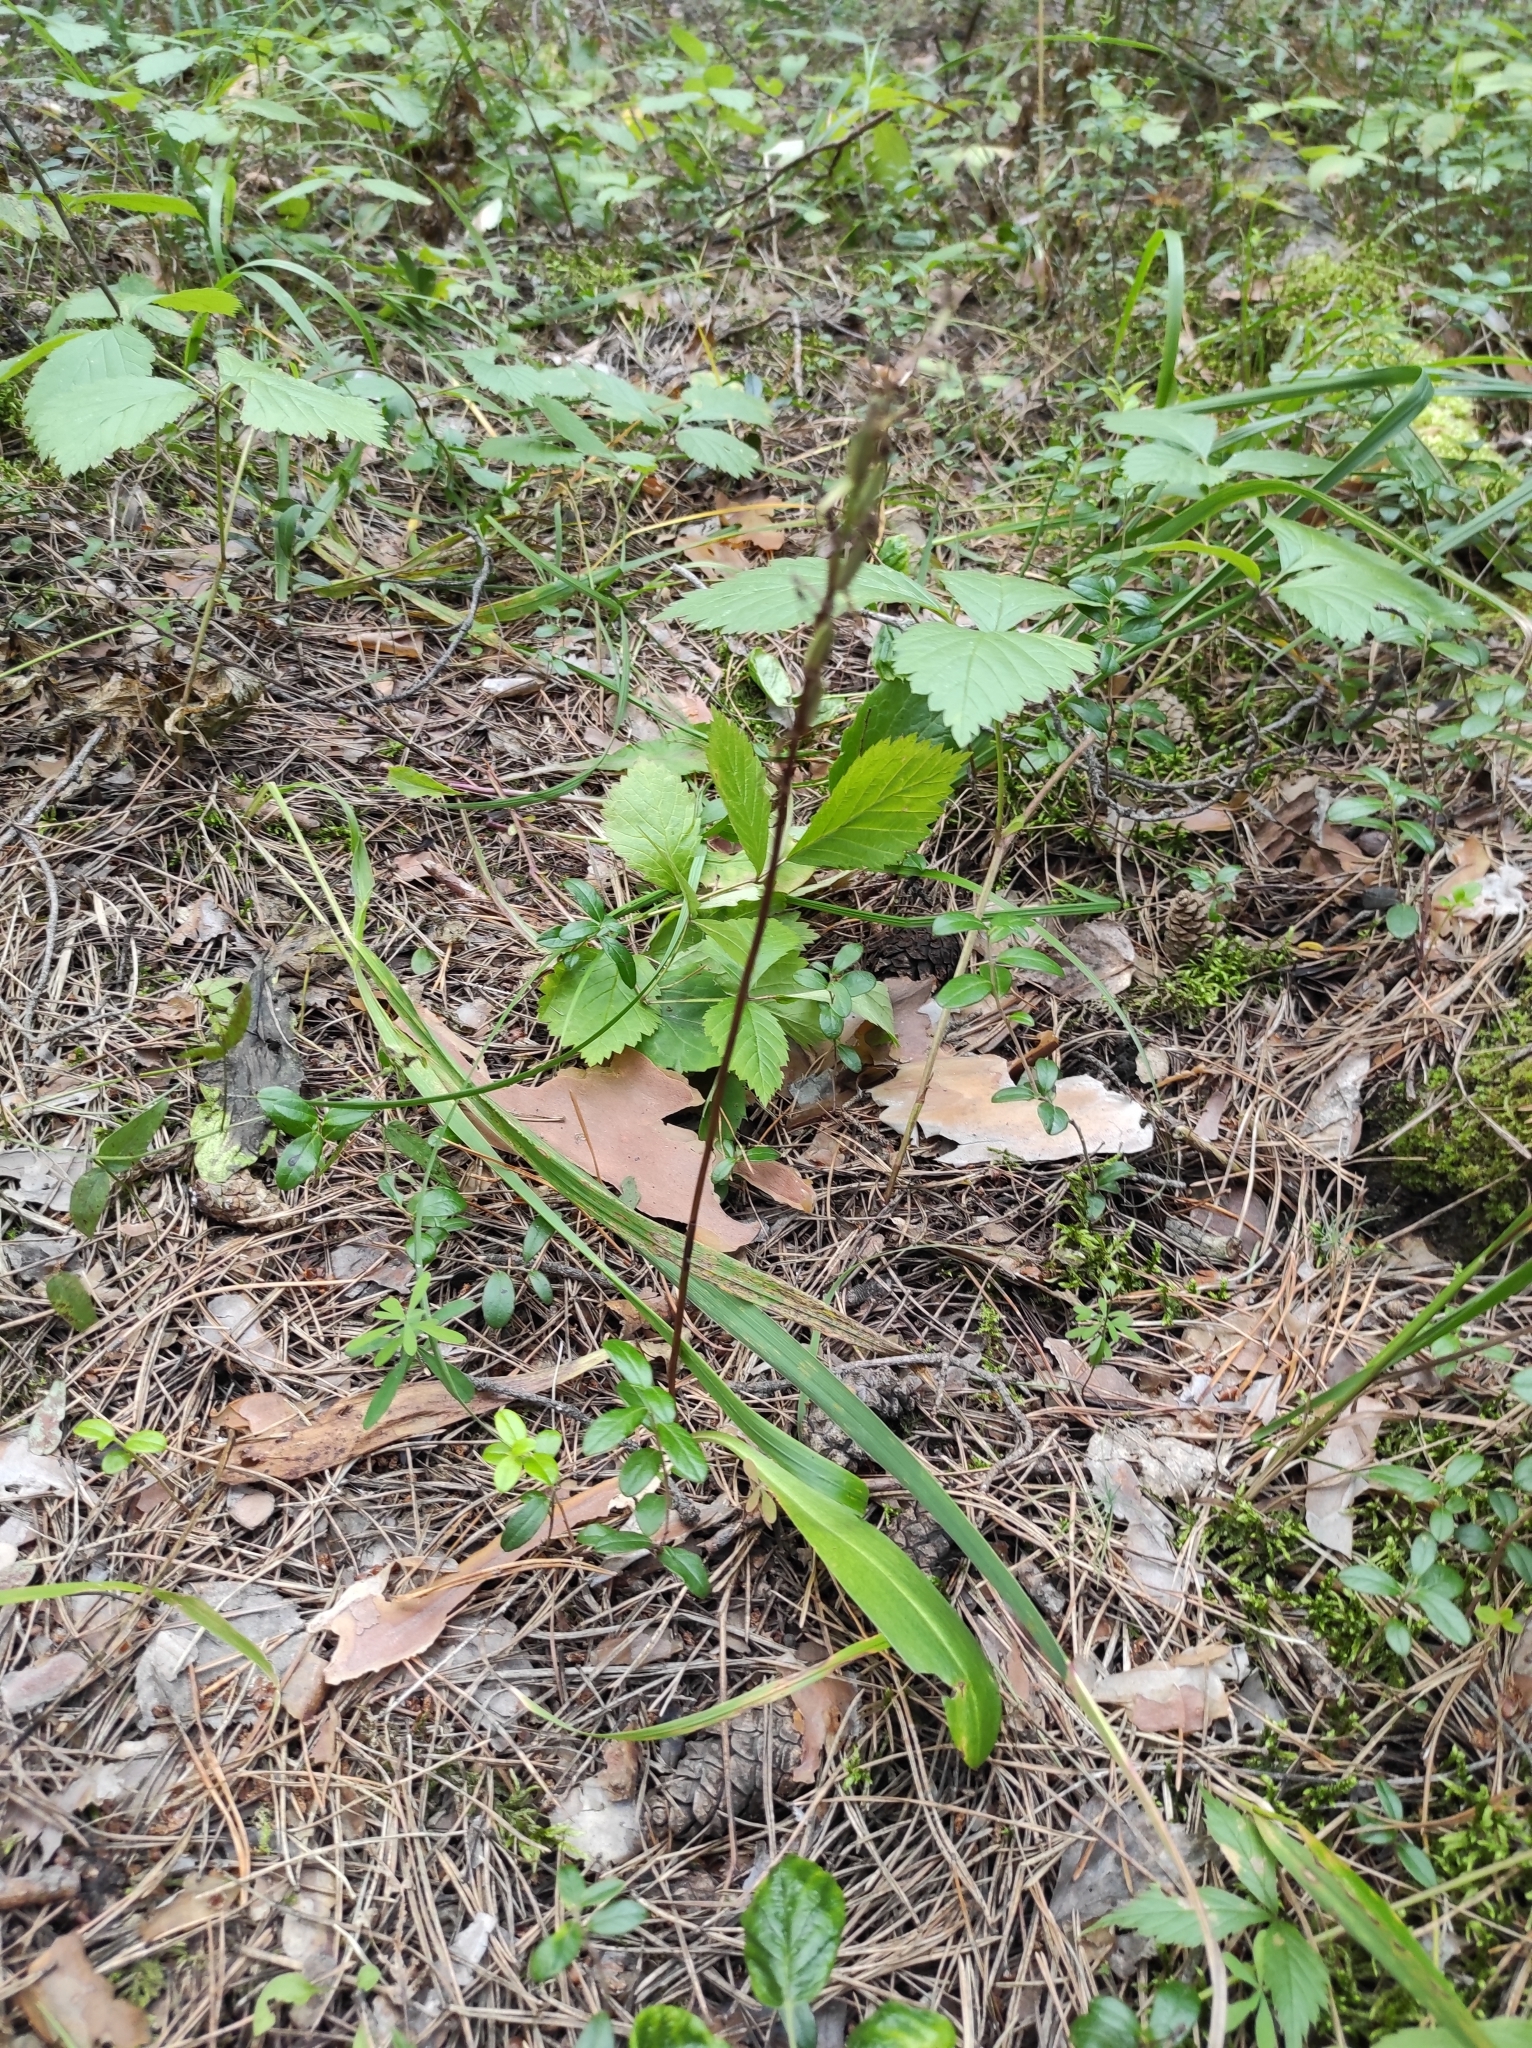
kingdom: Plantae
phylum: Tracheophyta
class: Liliopsida
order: Asparagales
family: Orchidaceae
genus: Platanthera
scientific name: Platanthera bifolia
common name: Lesser butterfly-orchid
